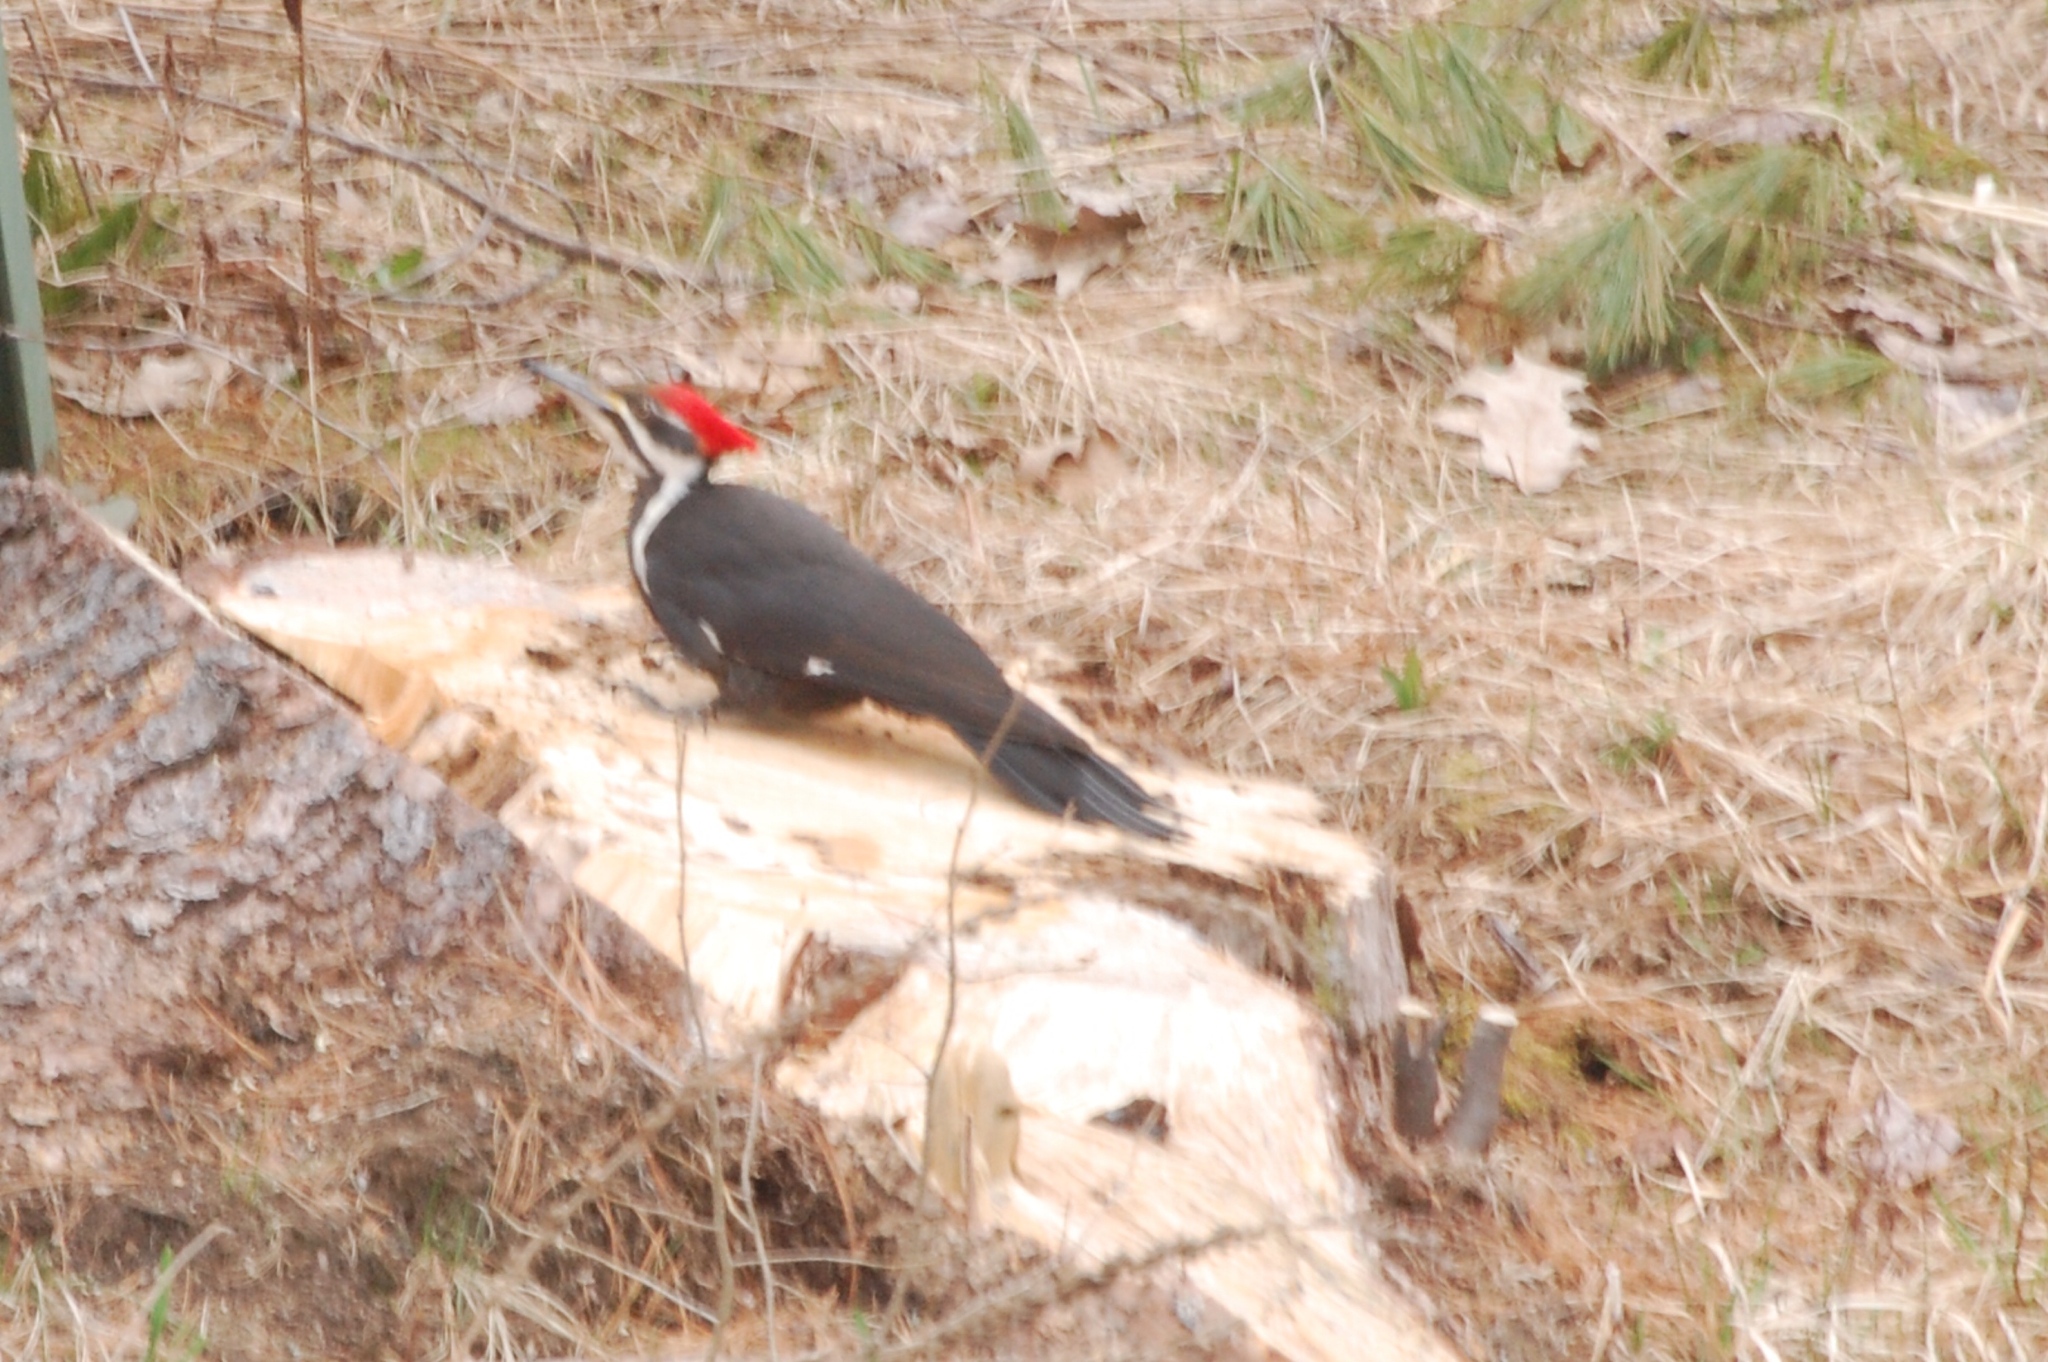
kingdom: Animalia
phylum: Chordata
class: Aves
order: Piciformes
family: Picidae
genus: Dryocopus
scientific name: Dryocopus pileatus
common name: Pileated woodpecker
